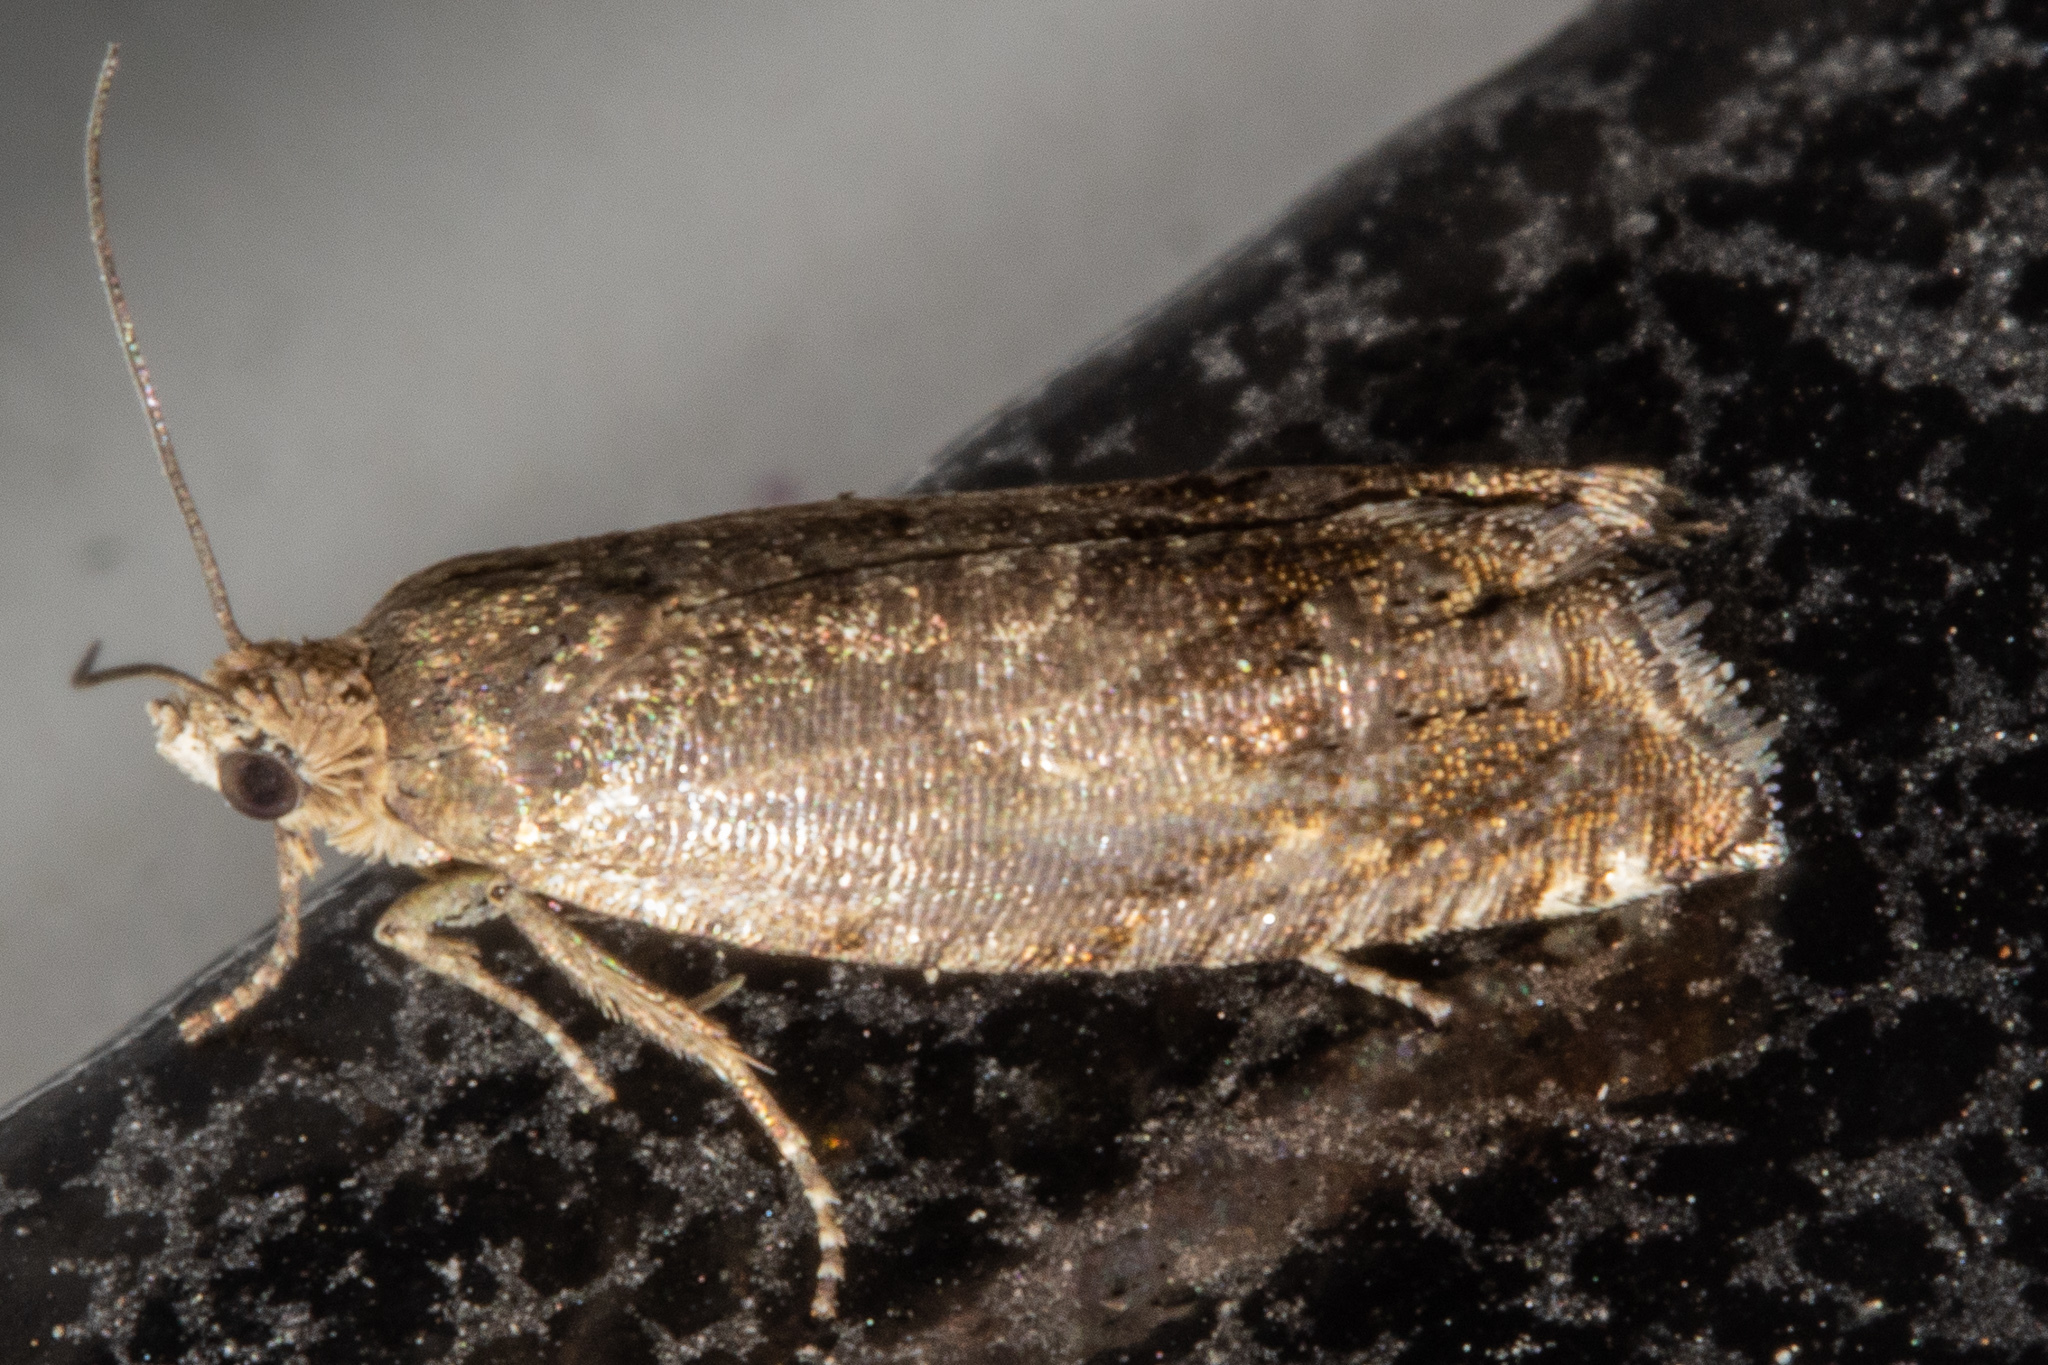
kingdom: Animalia
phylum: Arthropoda
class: Insecta
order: Lepidoptera
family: Tortricidae
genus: Cydia
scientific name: Cydia succedana
